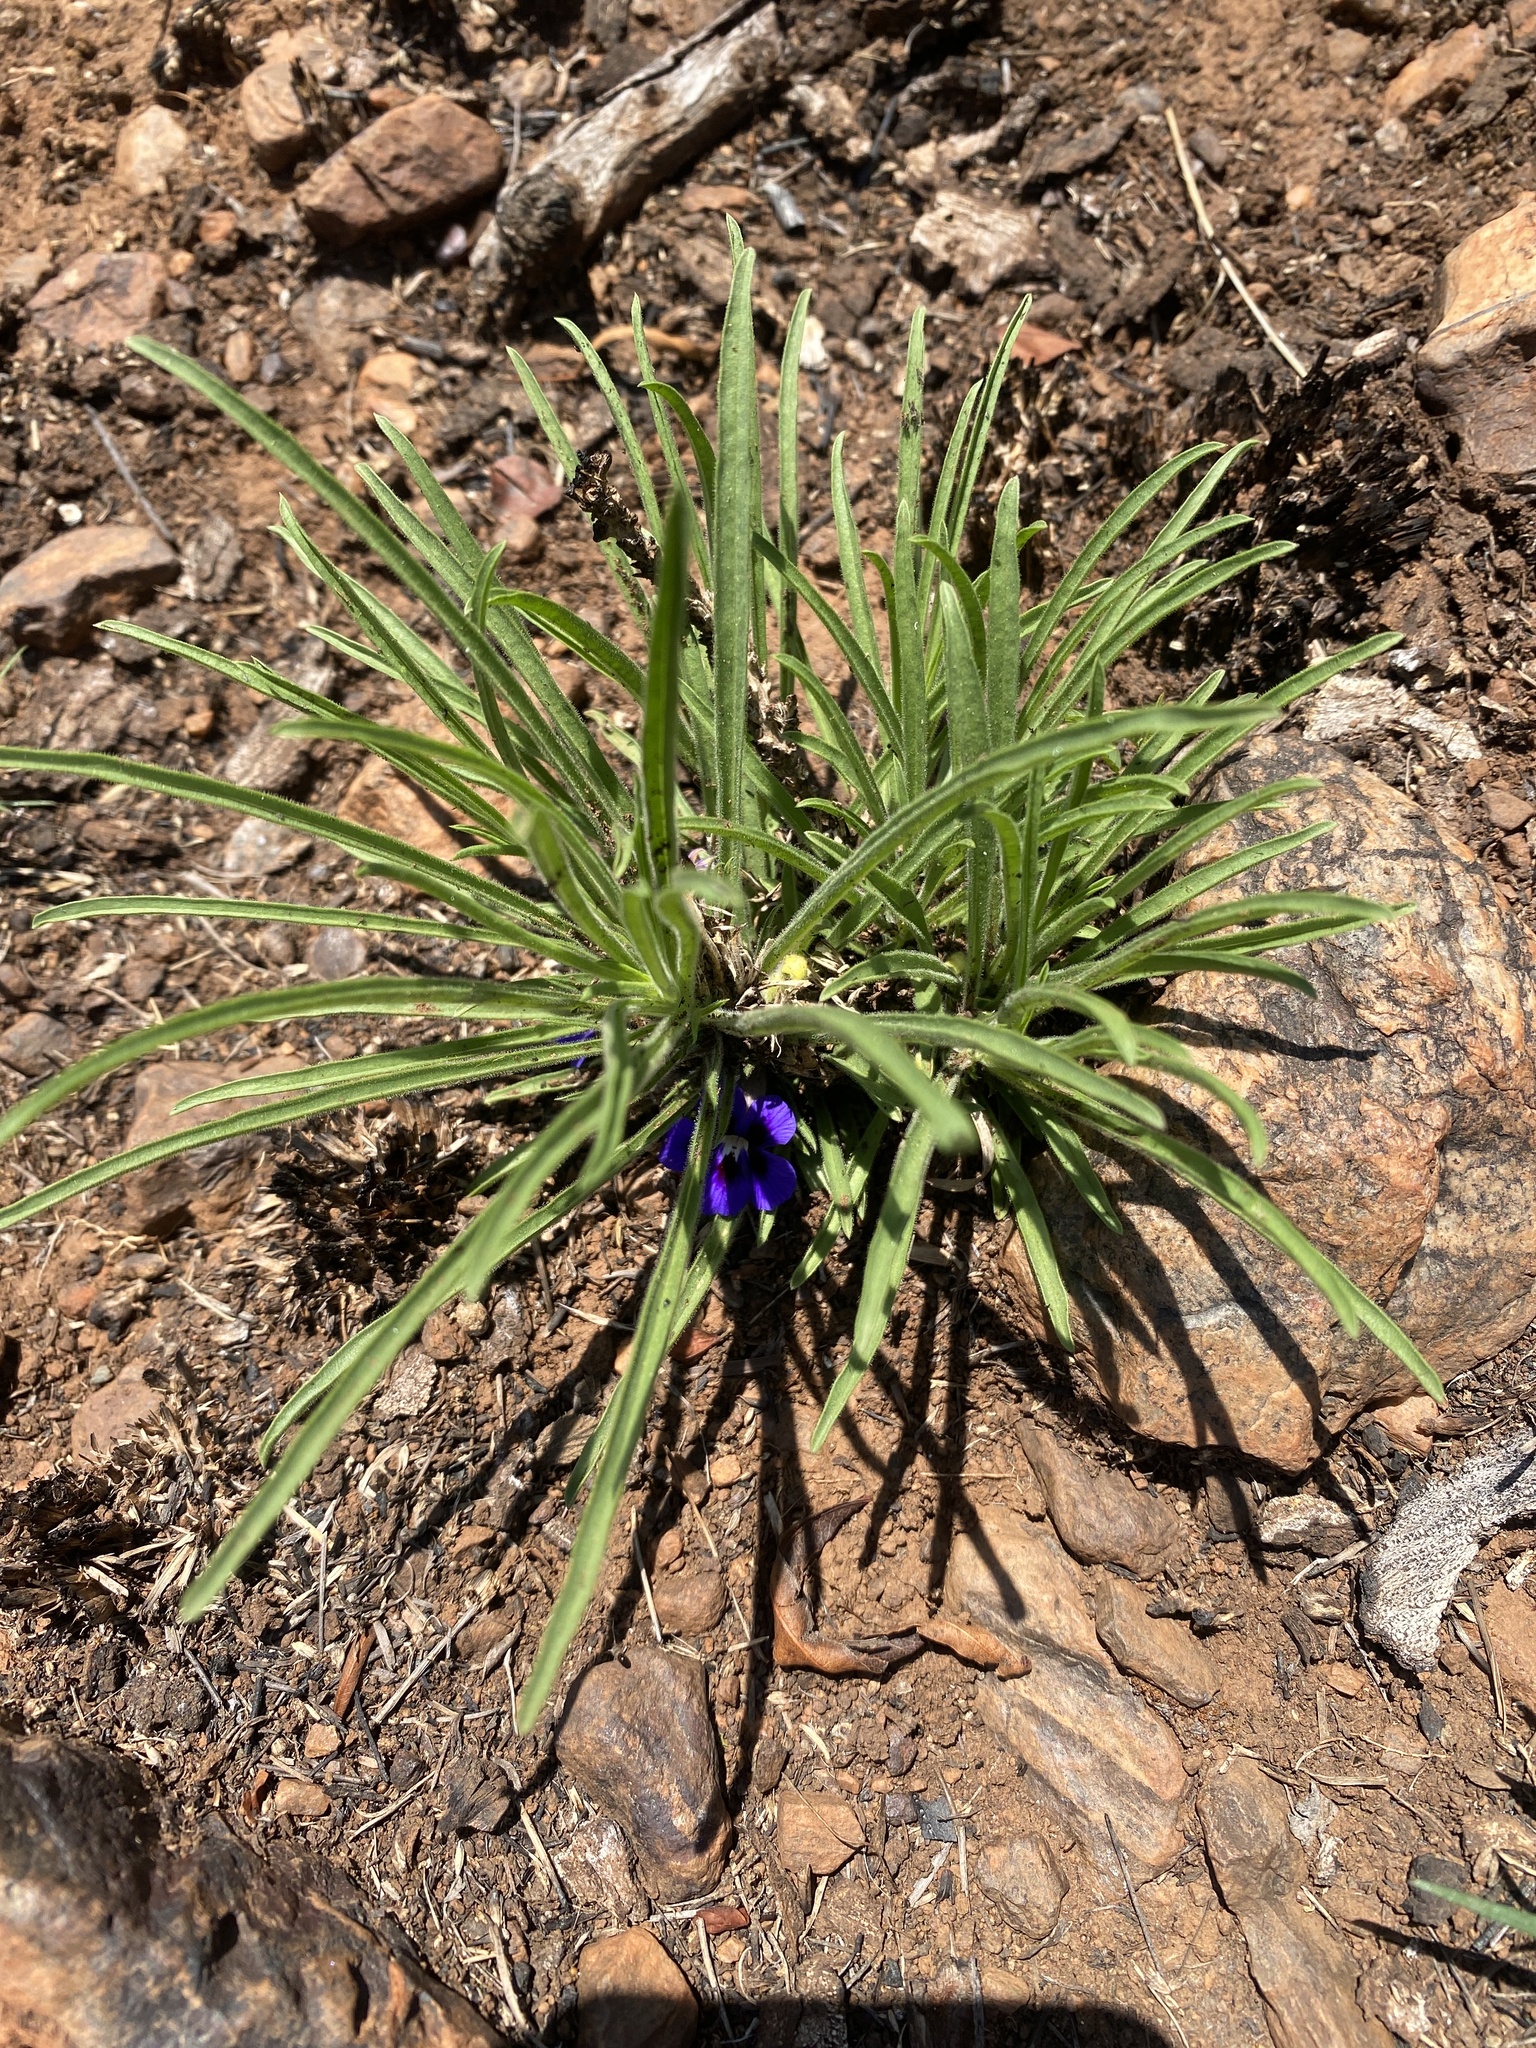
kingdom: Plantae
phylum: Tracheophyta
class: Magnoliopsida
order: Lamiales
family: Scrophulariaceae
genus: Aptosimum
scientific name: Aptosimum lineare
